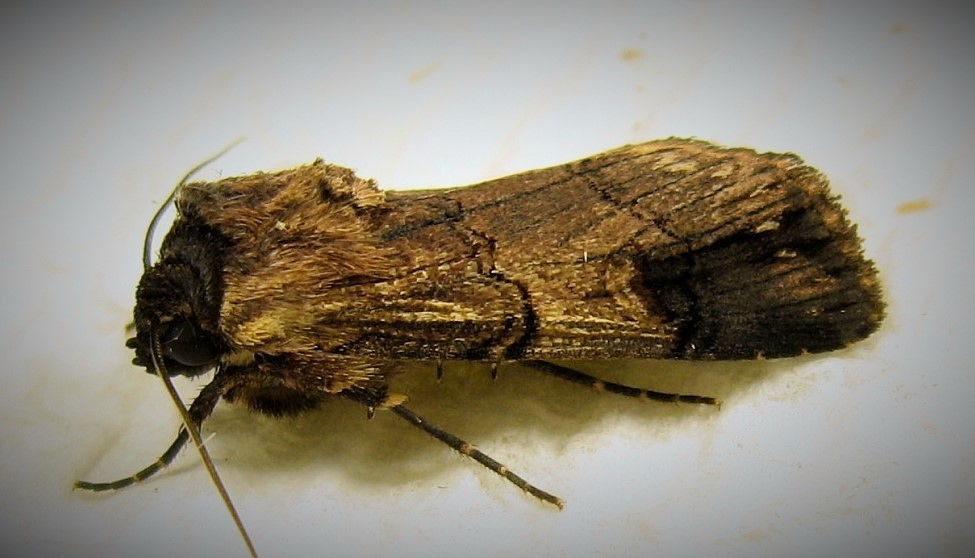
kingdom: Animalia
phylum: Arthropoda
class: Insecta
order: Lepidoptera
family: Noctuidae
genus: Dichagyris
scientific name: Dichagyris grotei
